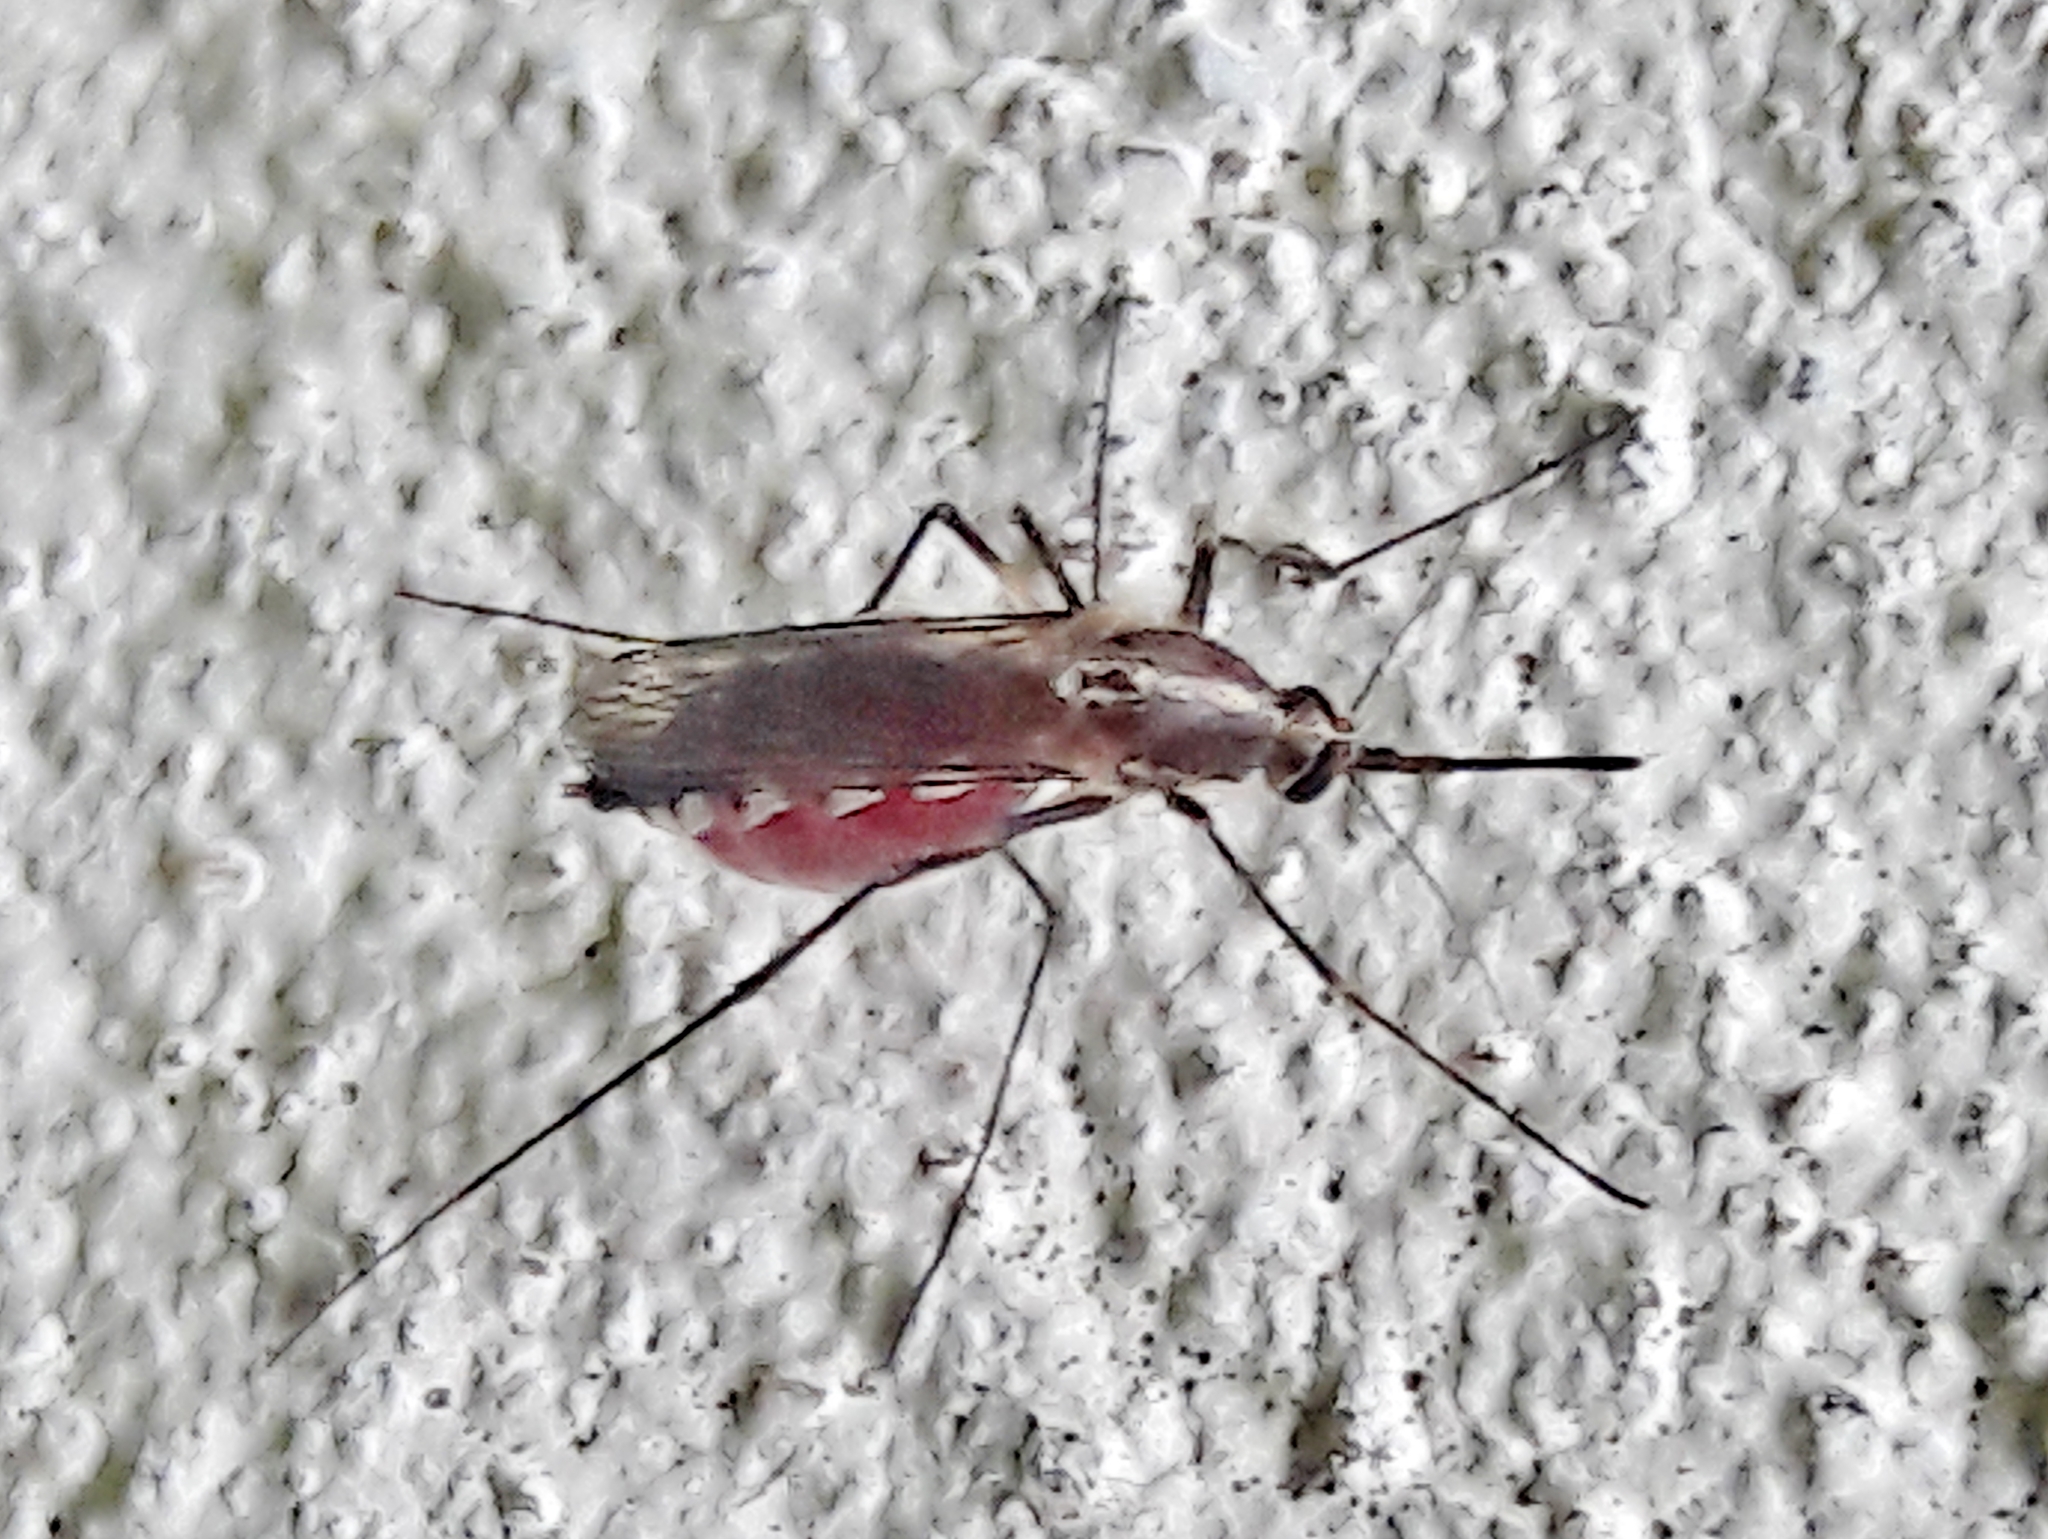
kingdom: Animalia
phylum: Arthropoda
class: Insecta
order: Diptera
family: Culicidae
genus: Aedes
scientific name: Aedes condolescens
